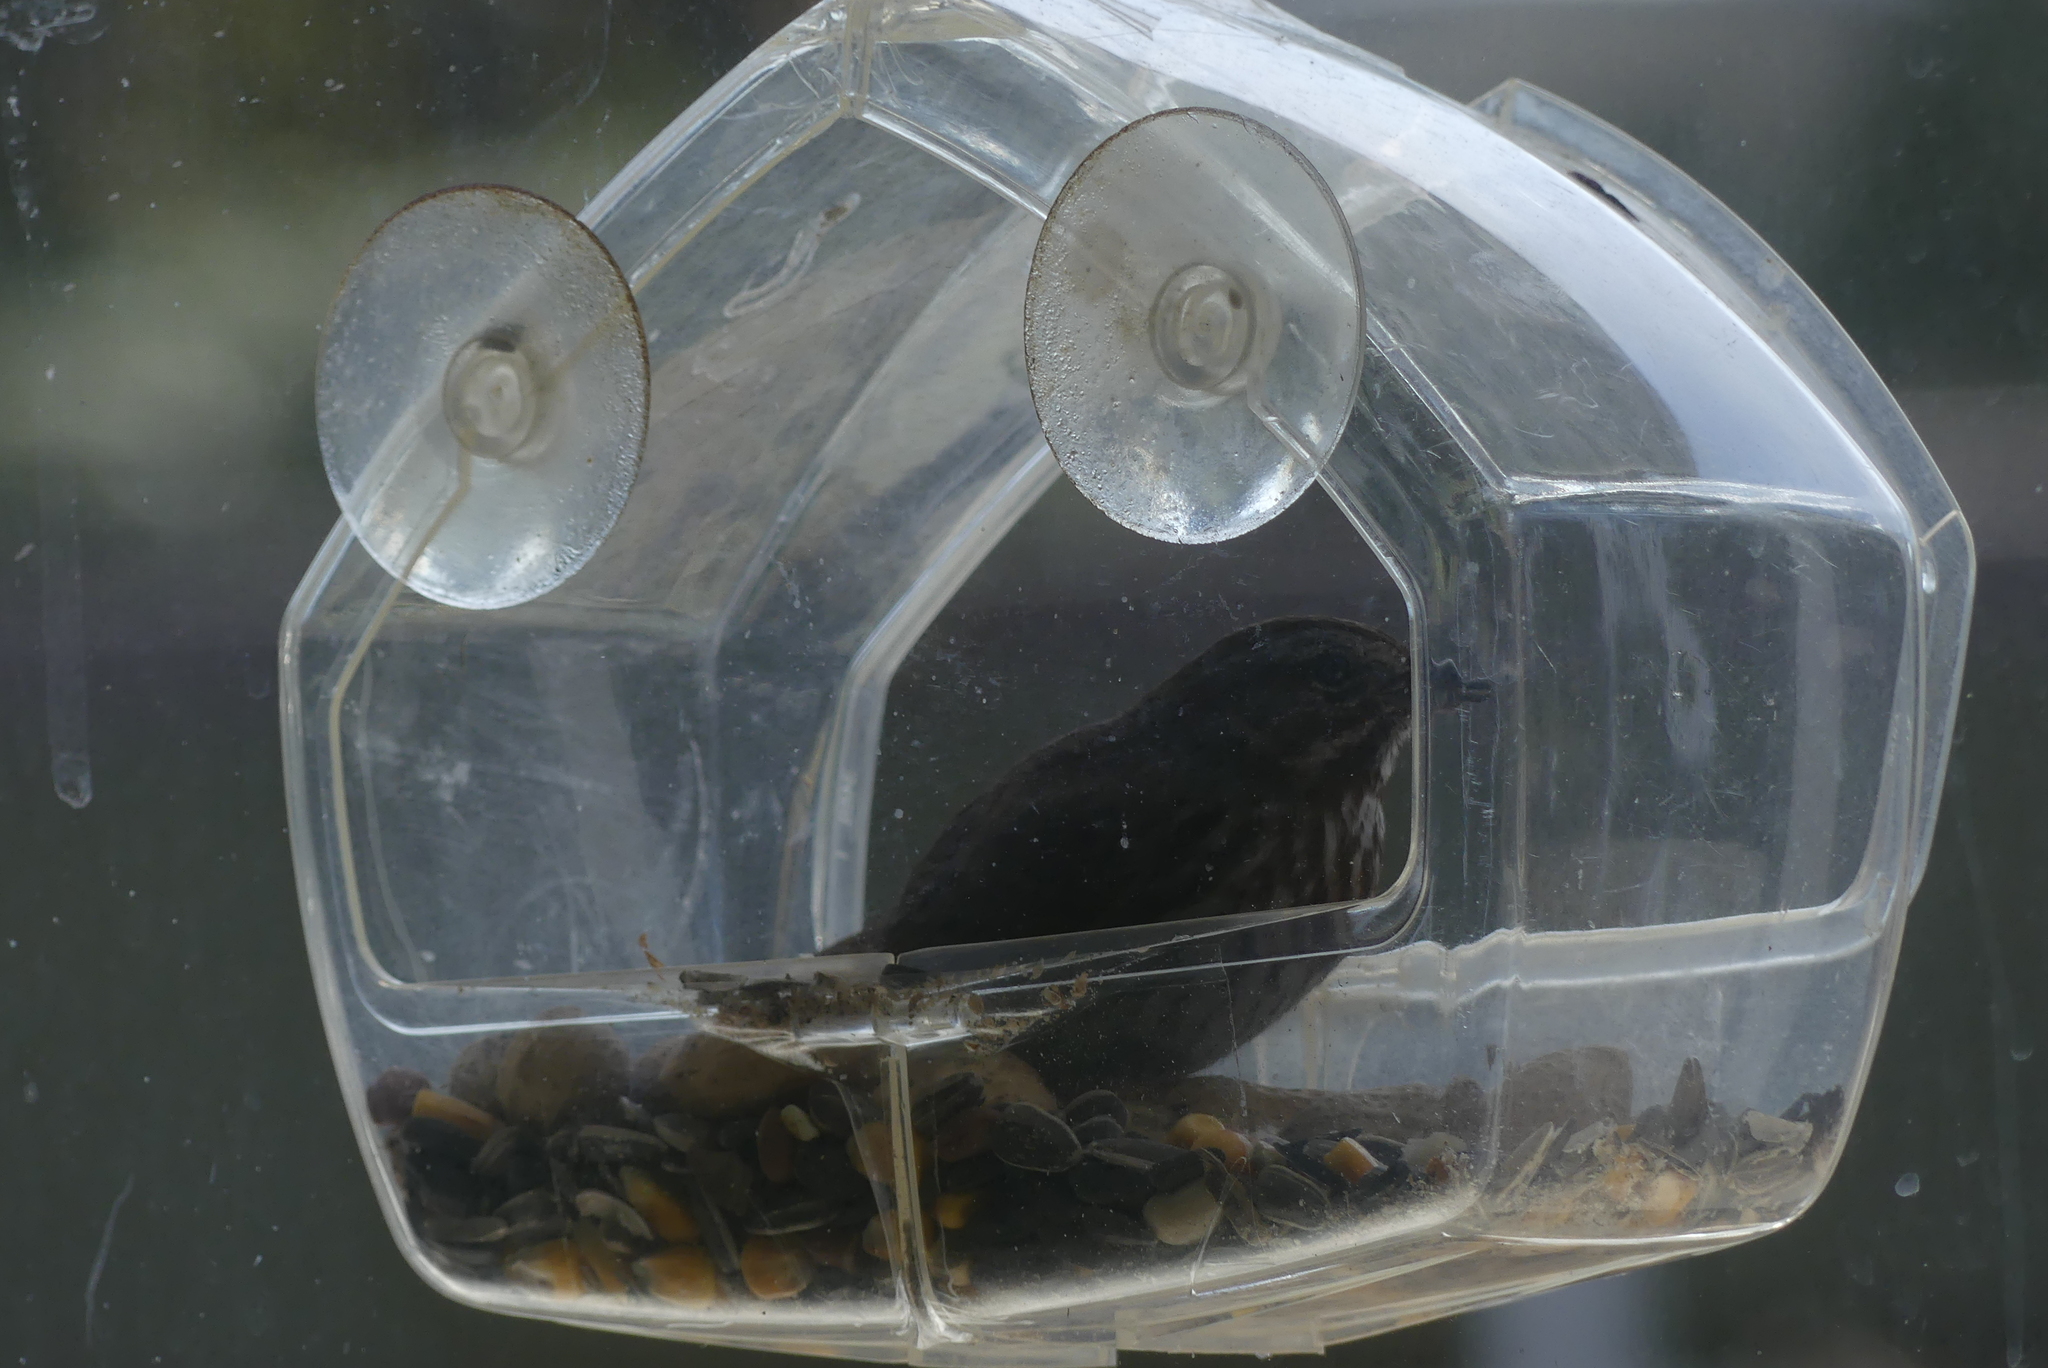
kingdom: Animalia
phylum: Chordata
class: Aves
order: Passeriformes
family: Passerellidae
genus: Melospiza
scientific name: Melospiza melodia
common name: Song sparrow
